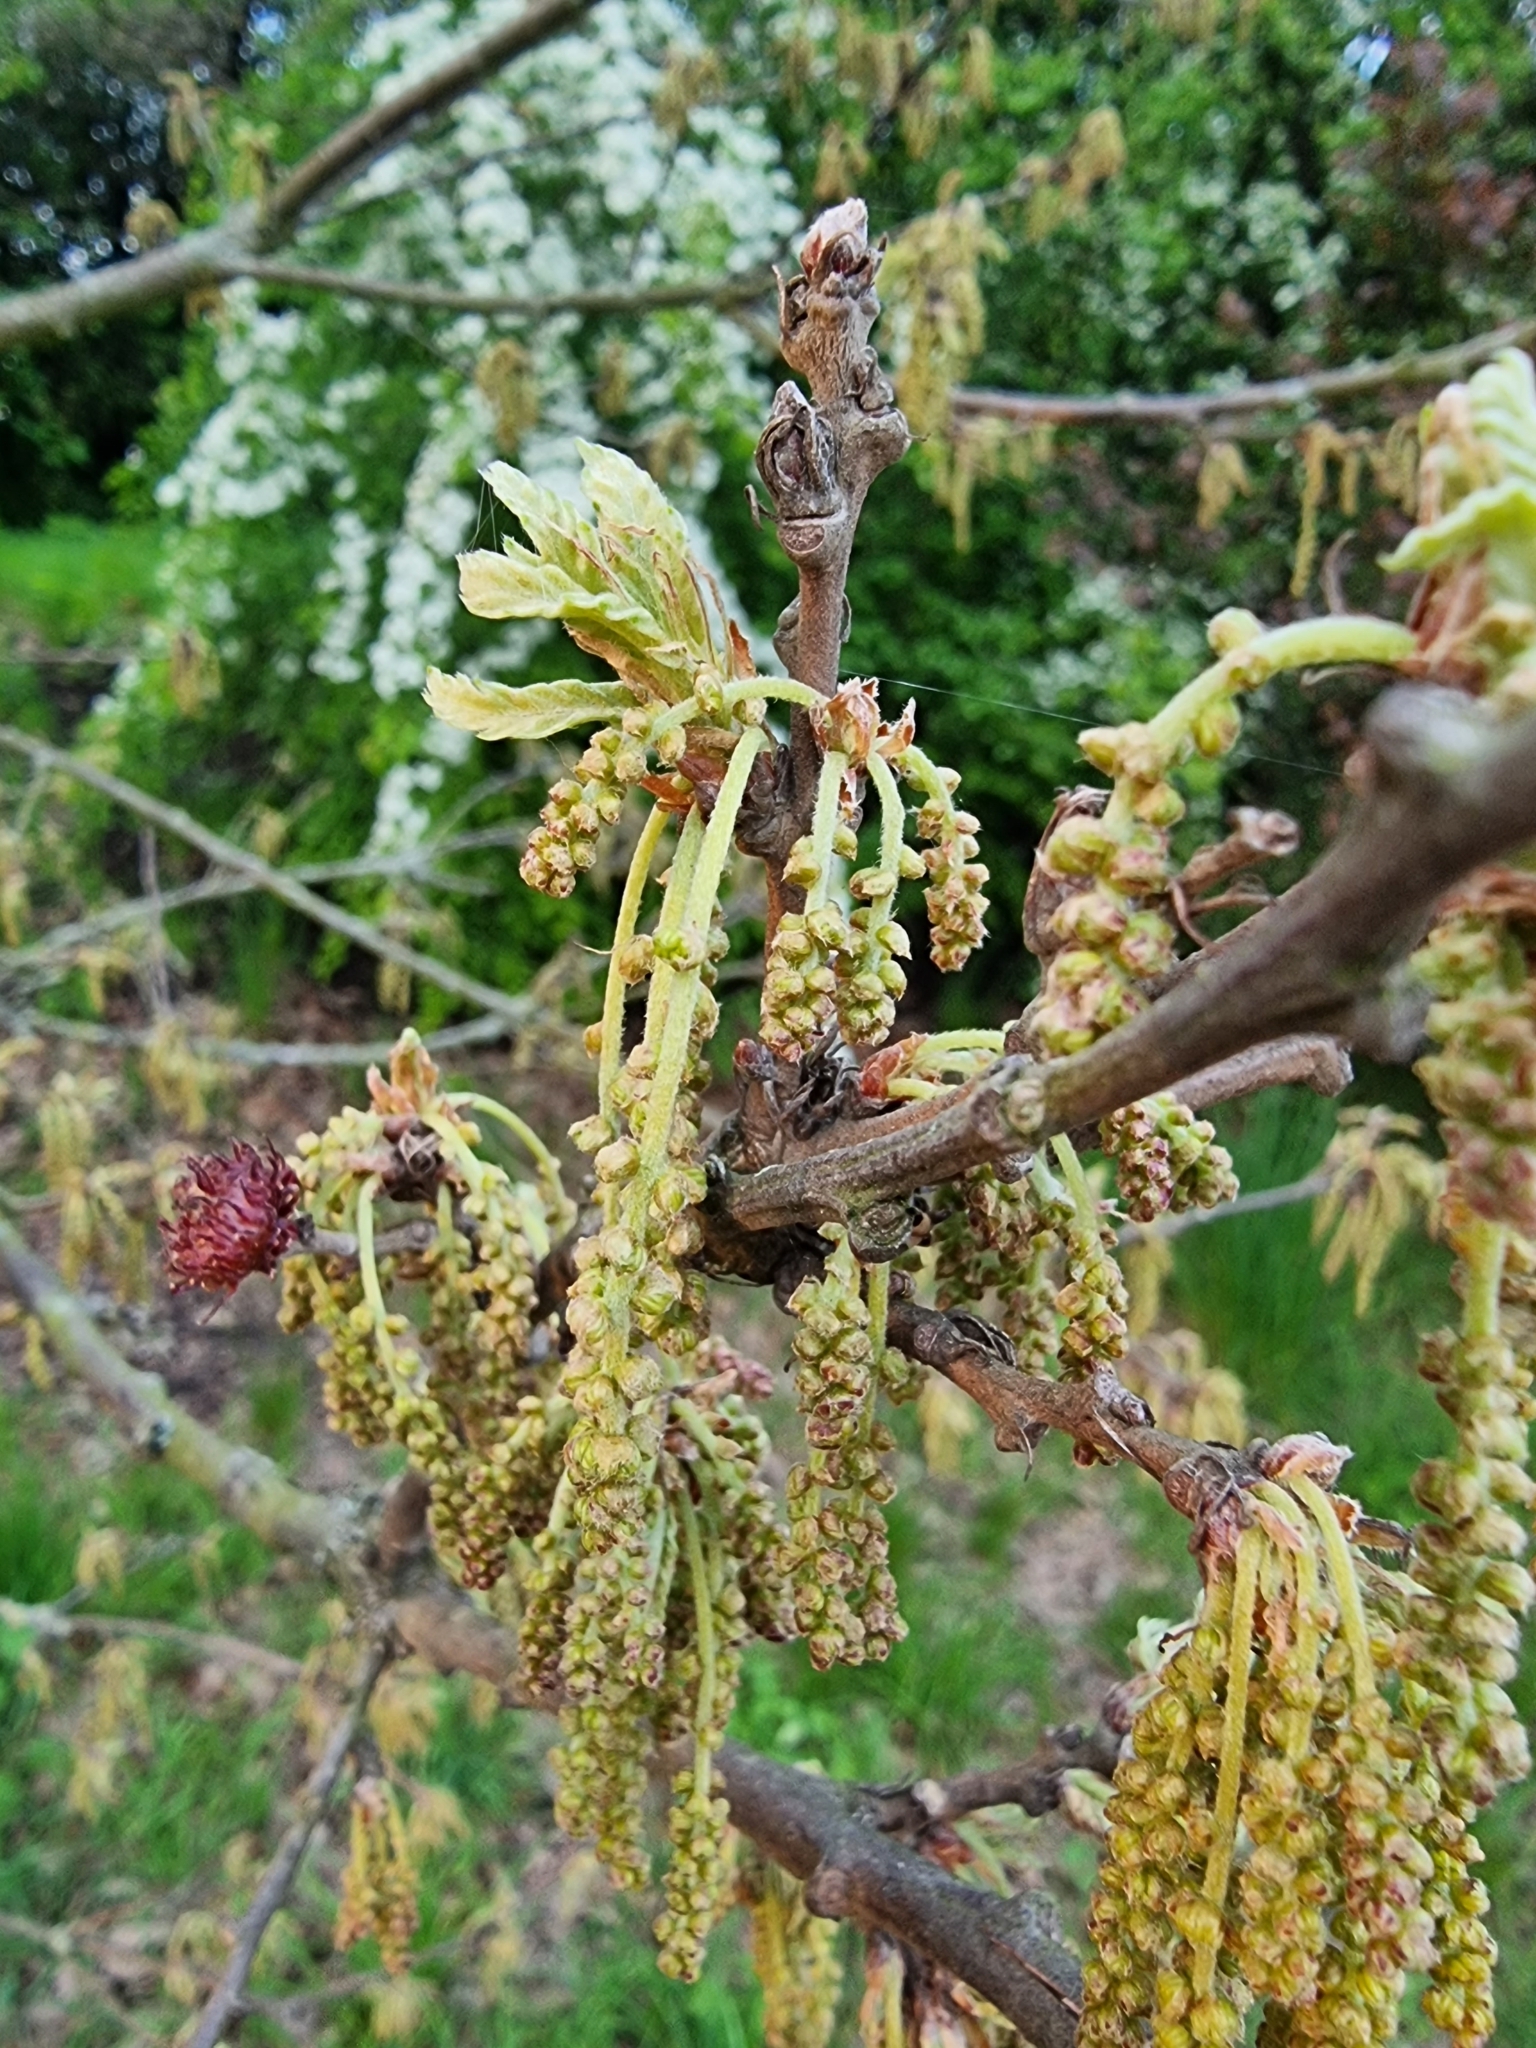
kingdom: Plantae
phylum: Tracheophyta
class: Magnoliopsida
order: Fagales
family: Fagaceae
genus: Quercus
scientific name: Quercus cerris
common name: Turkey oak
